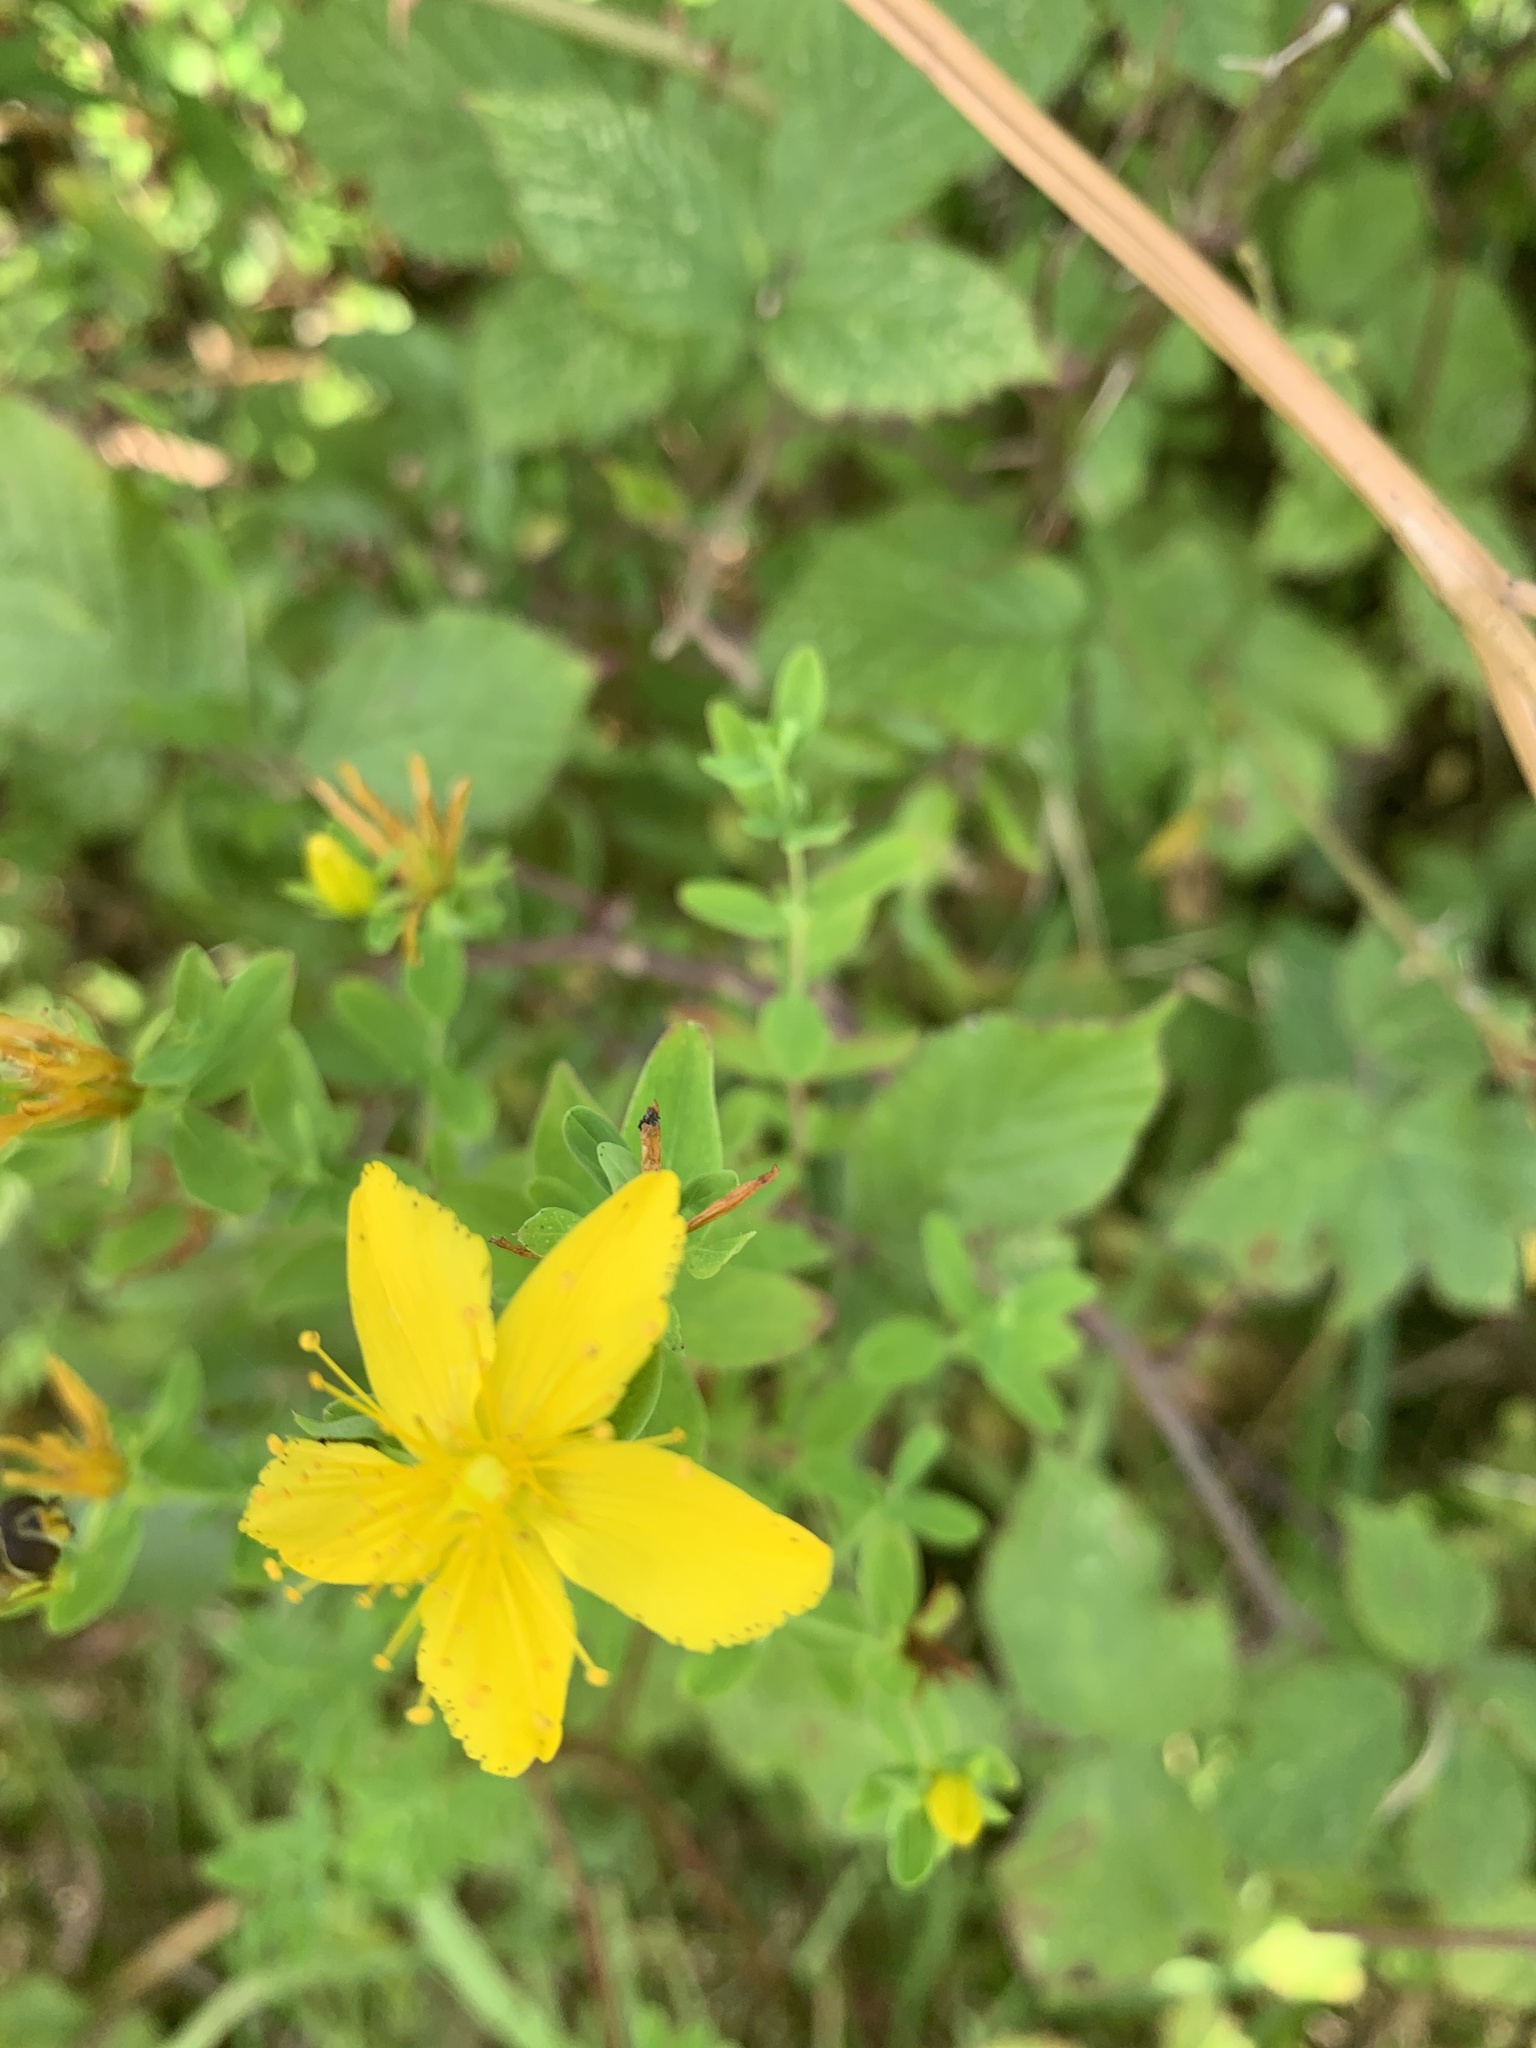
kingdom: Plantae
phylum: Tracheophyta
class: Magnoliopsida
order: Malpighiales
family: Hypericaceae
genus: Hypericum
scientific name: Hypericum perforatum
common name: Common st. johnswort
